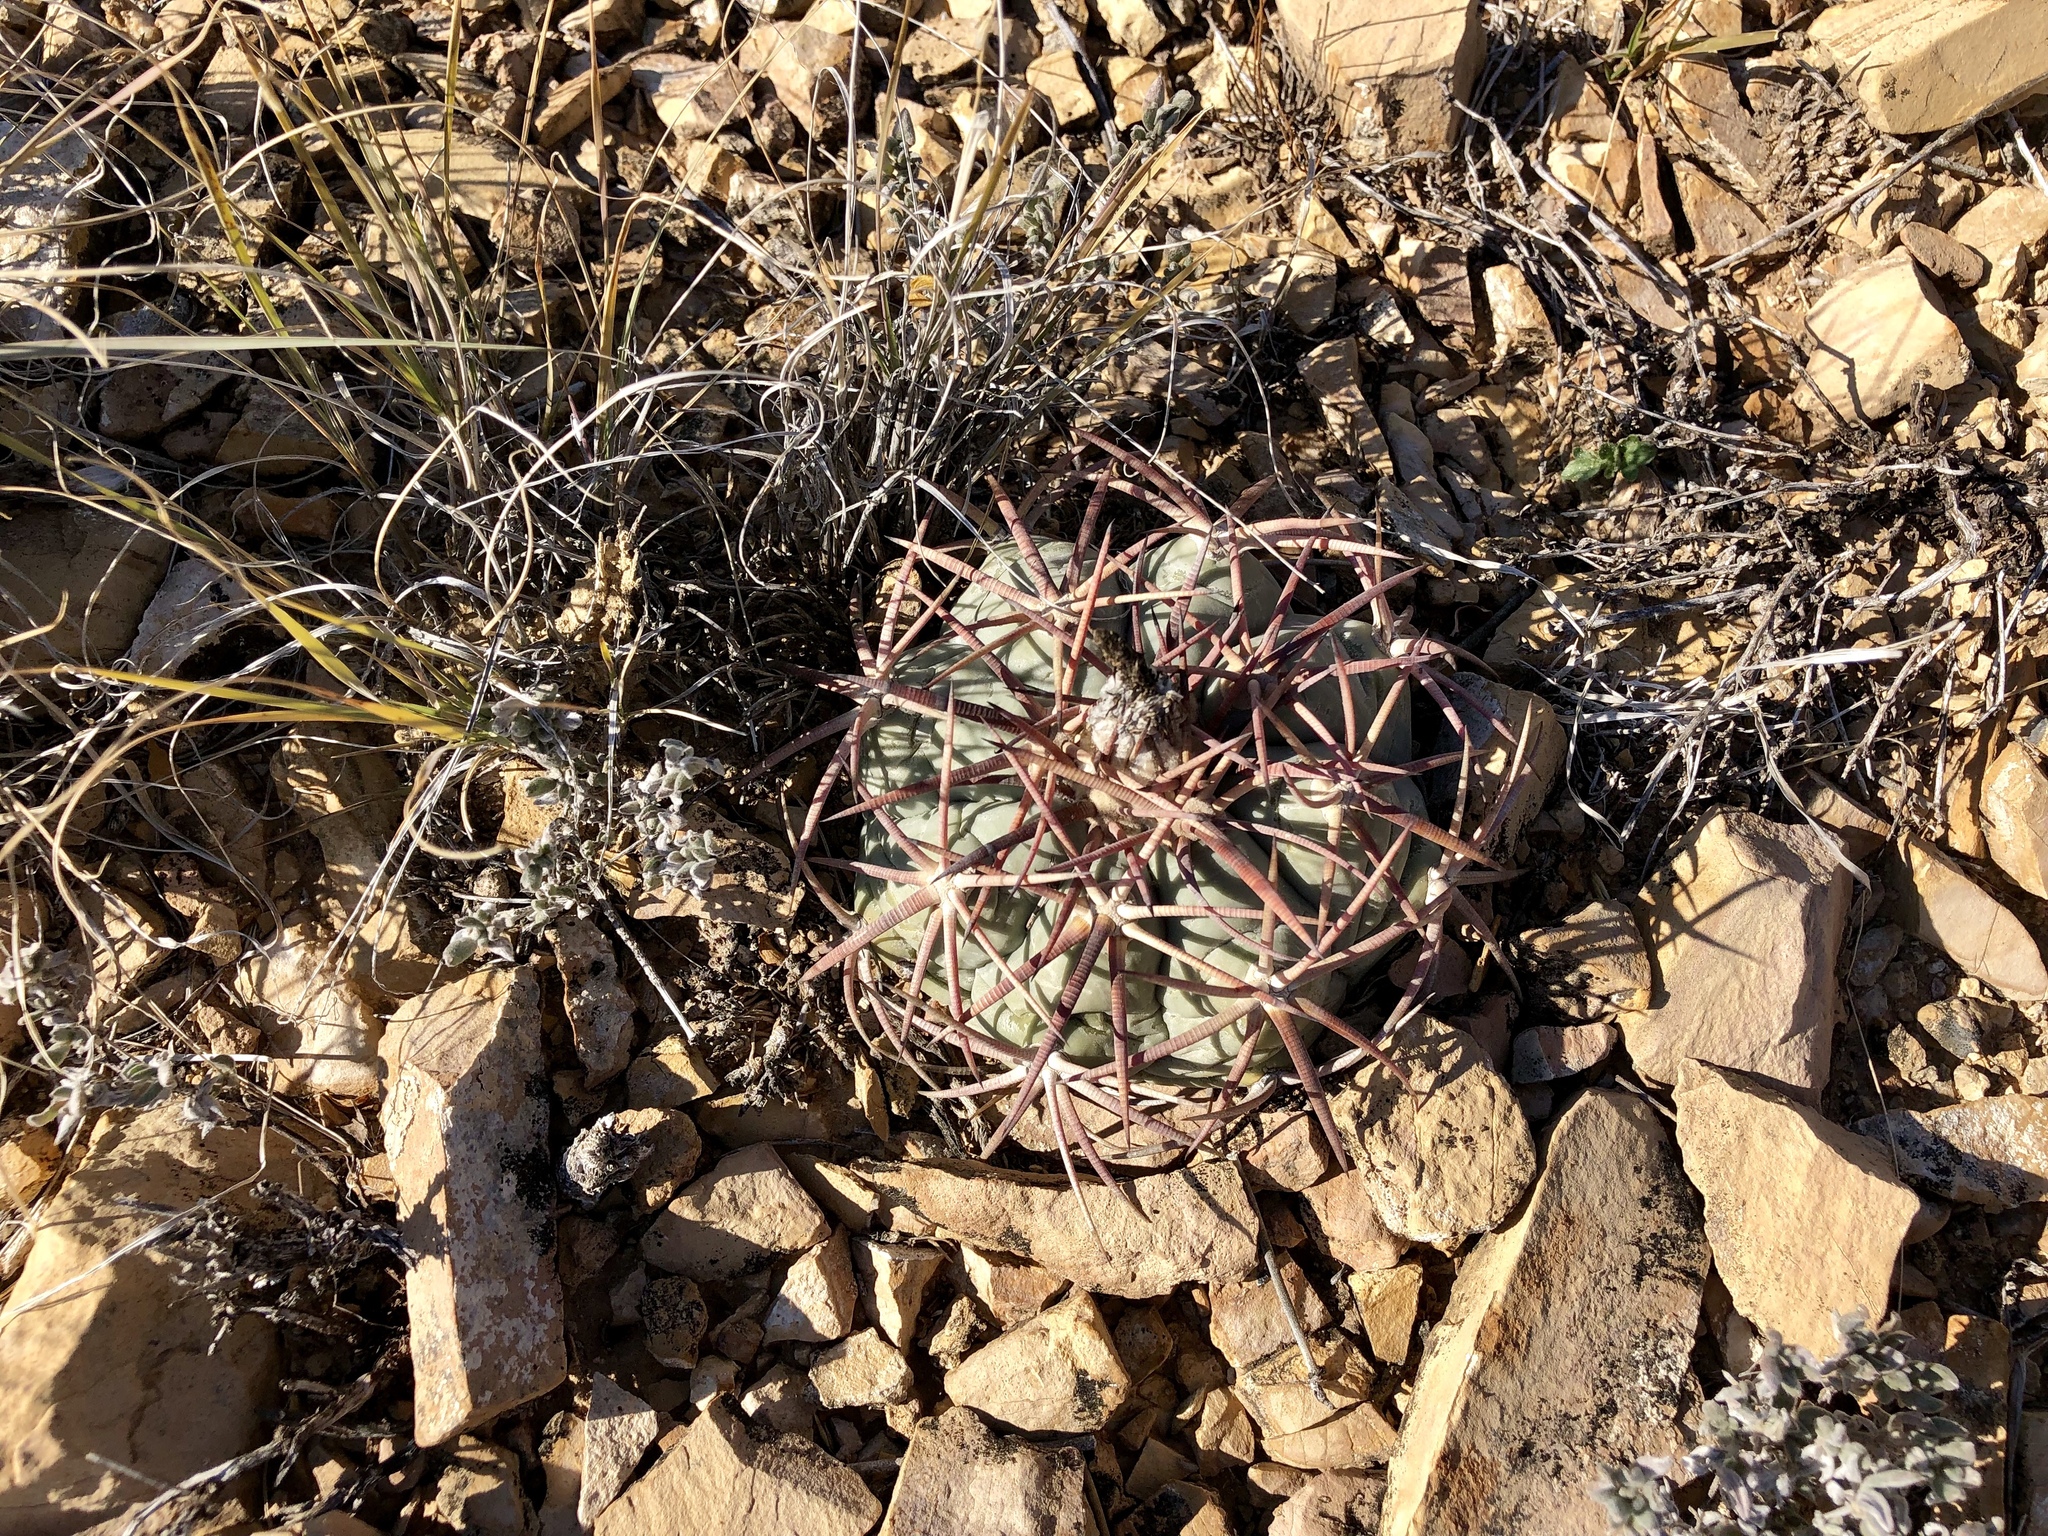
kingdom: Plantae
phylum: Tracheophyta
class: Magnoliopsida
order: Caryophyllales
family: Cactaceae
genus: Echinocactus
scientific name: Echinocactus horizonthalonius
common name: Devilshead
